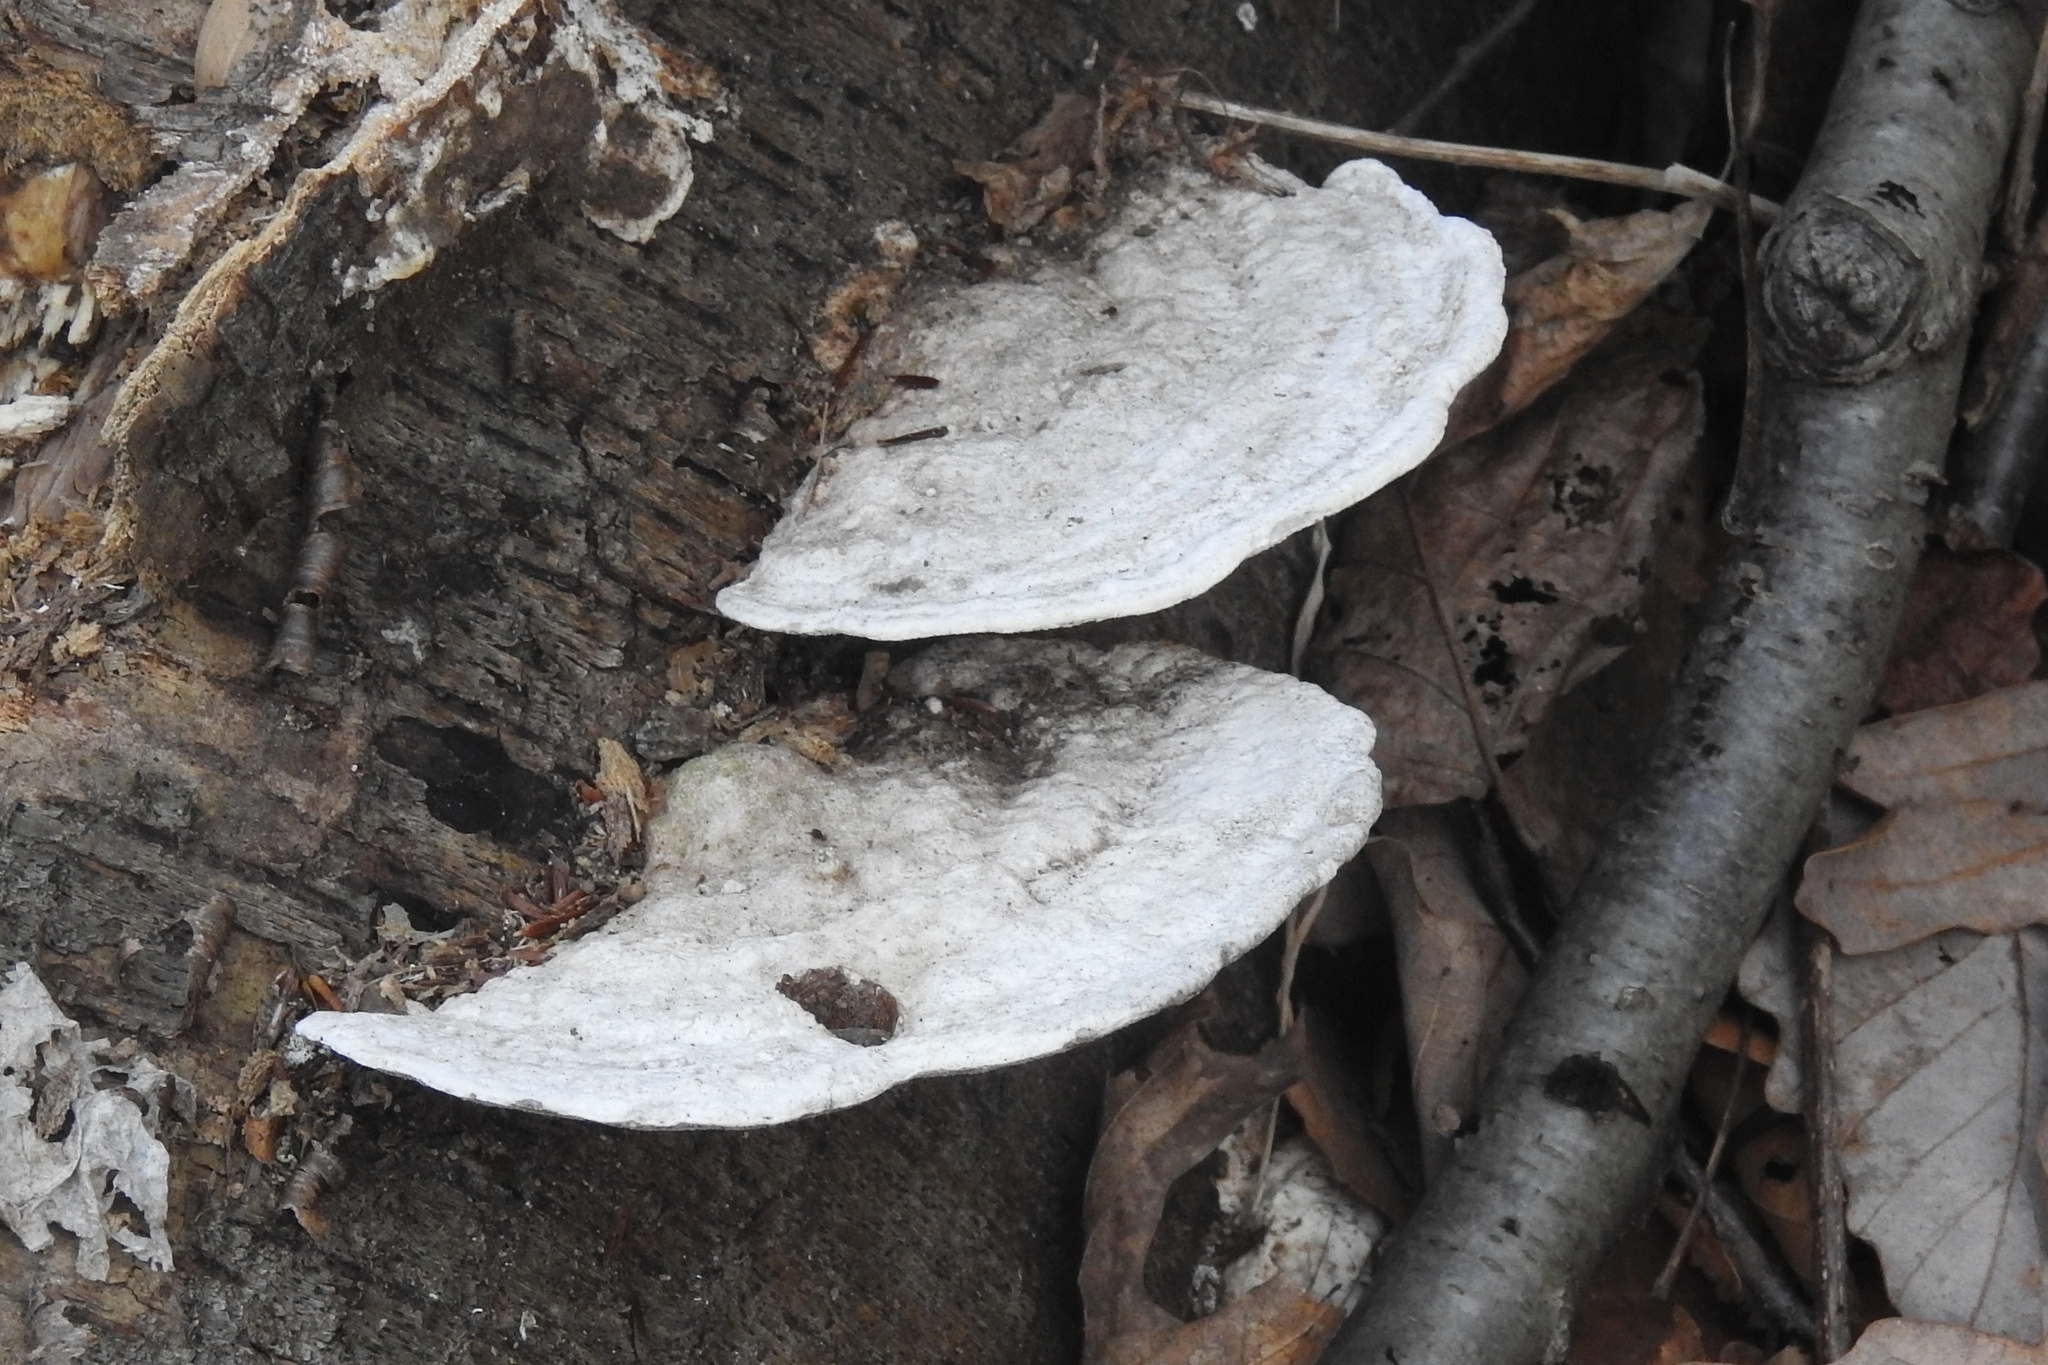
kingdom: Fungi
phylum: Basidiomycota
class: Agaricomycetes
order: Polyporales
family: Polyporaceae
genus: Trametes
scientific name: Trametes gibbosa
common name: Lumpy bracket
